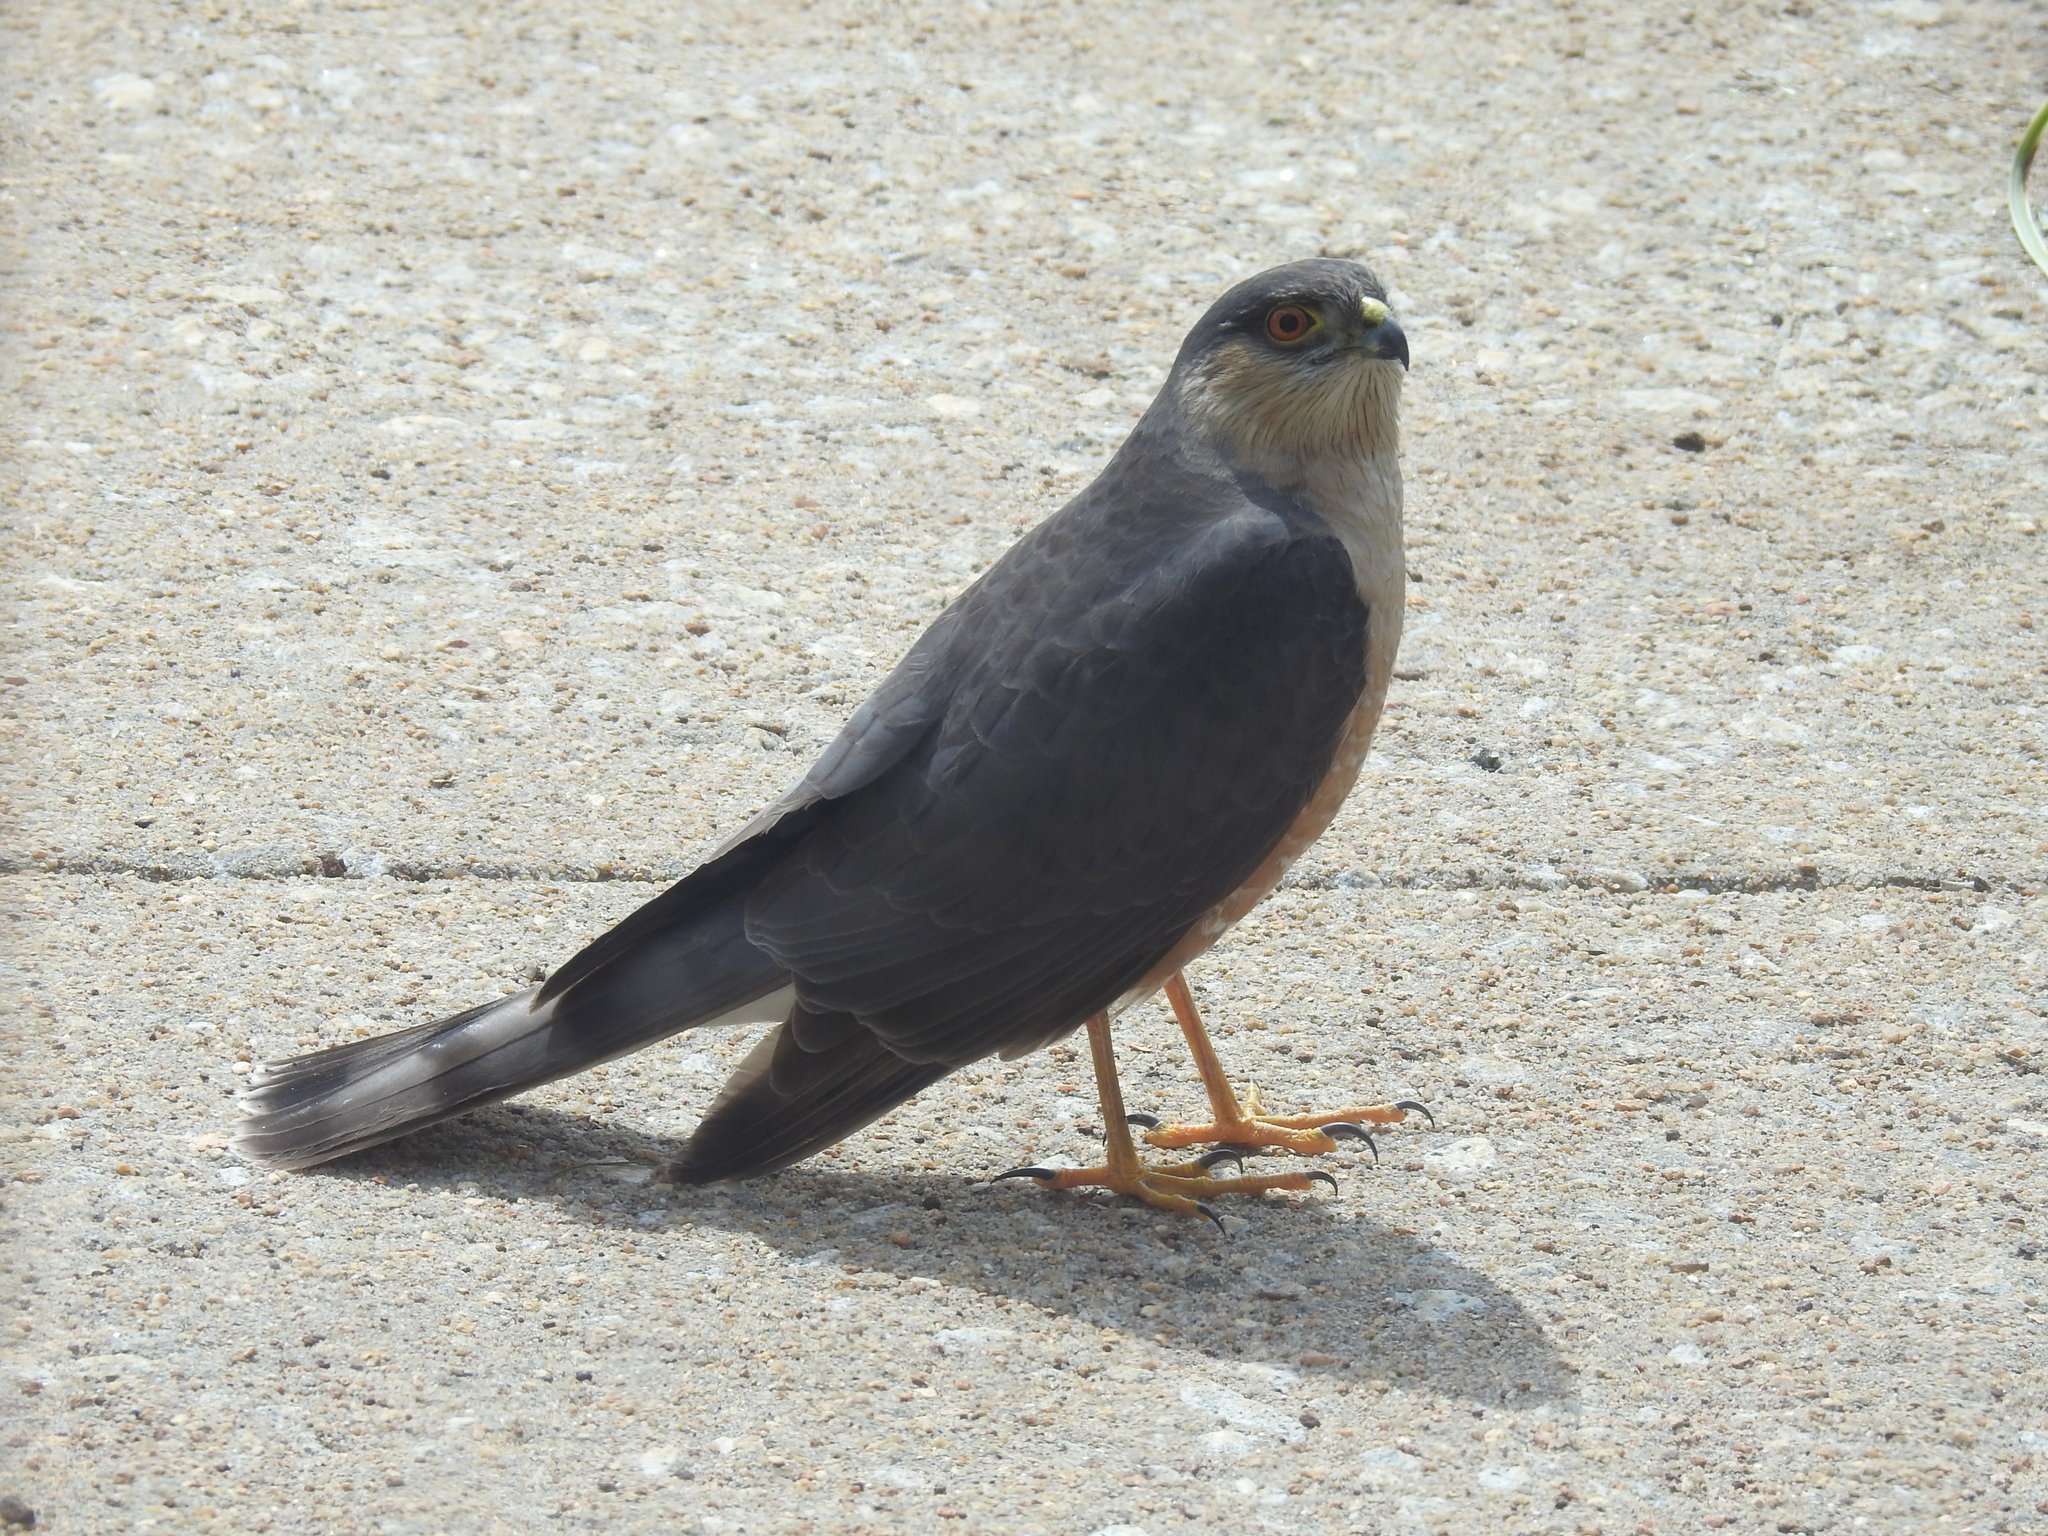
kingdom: Animalia
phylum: Chordata
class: Aves
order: Accipitriformes
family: Accipitridae
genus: Accipiter
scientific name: Accipiter striatus
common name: Sharp-shinned hawk
